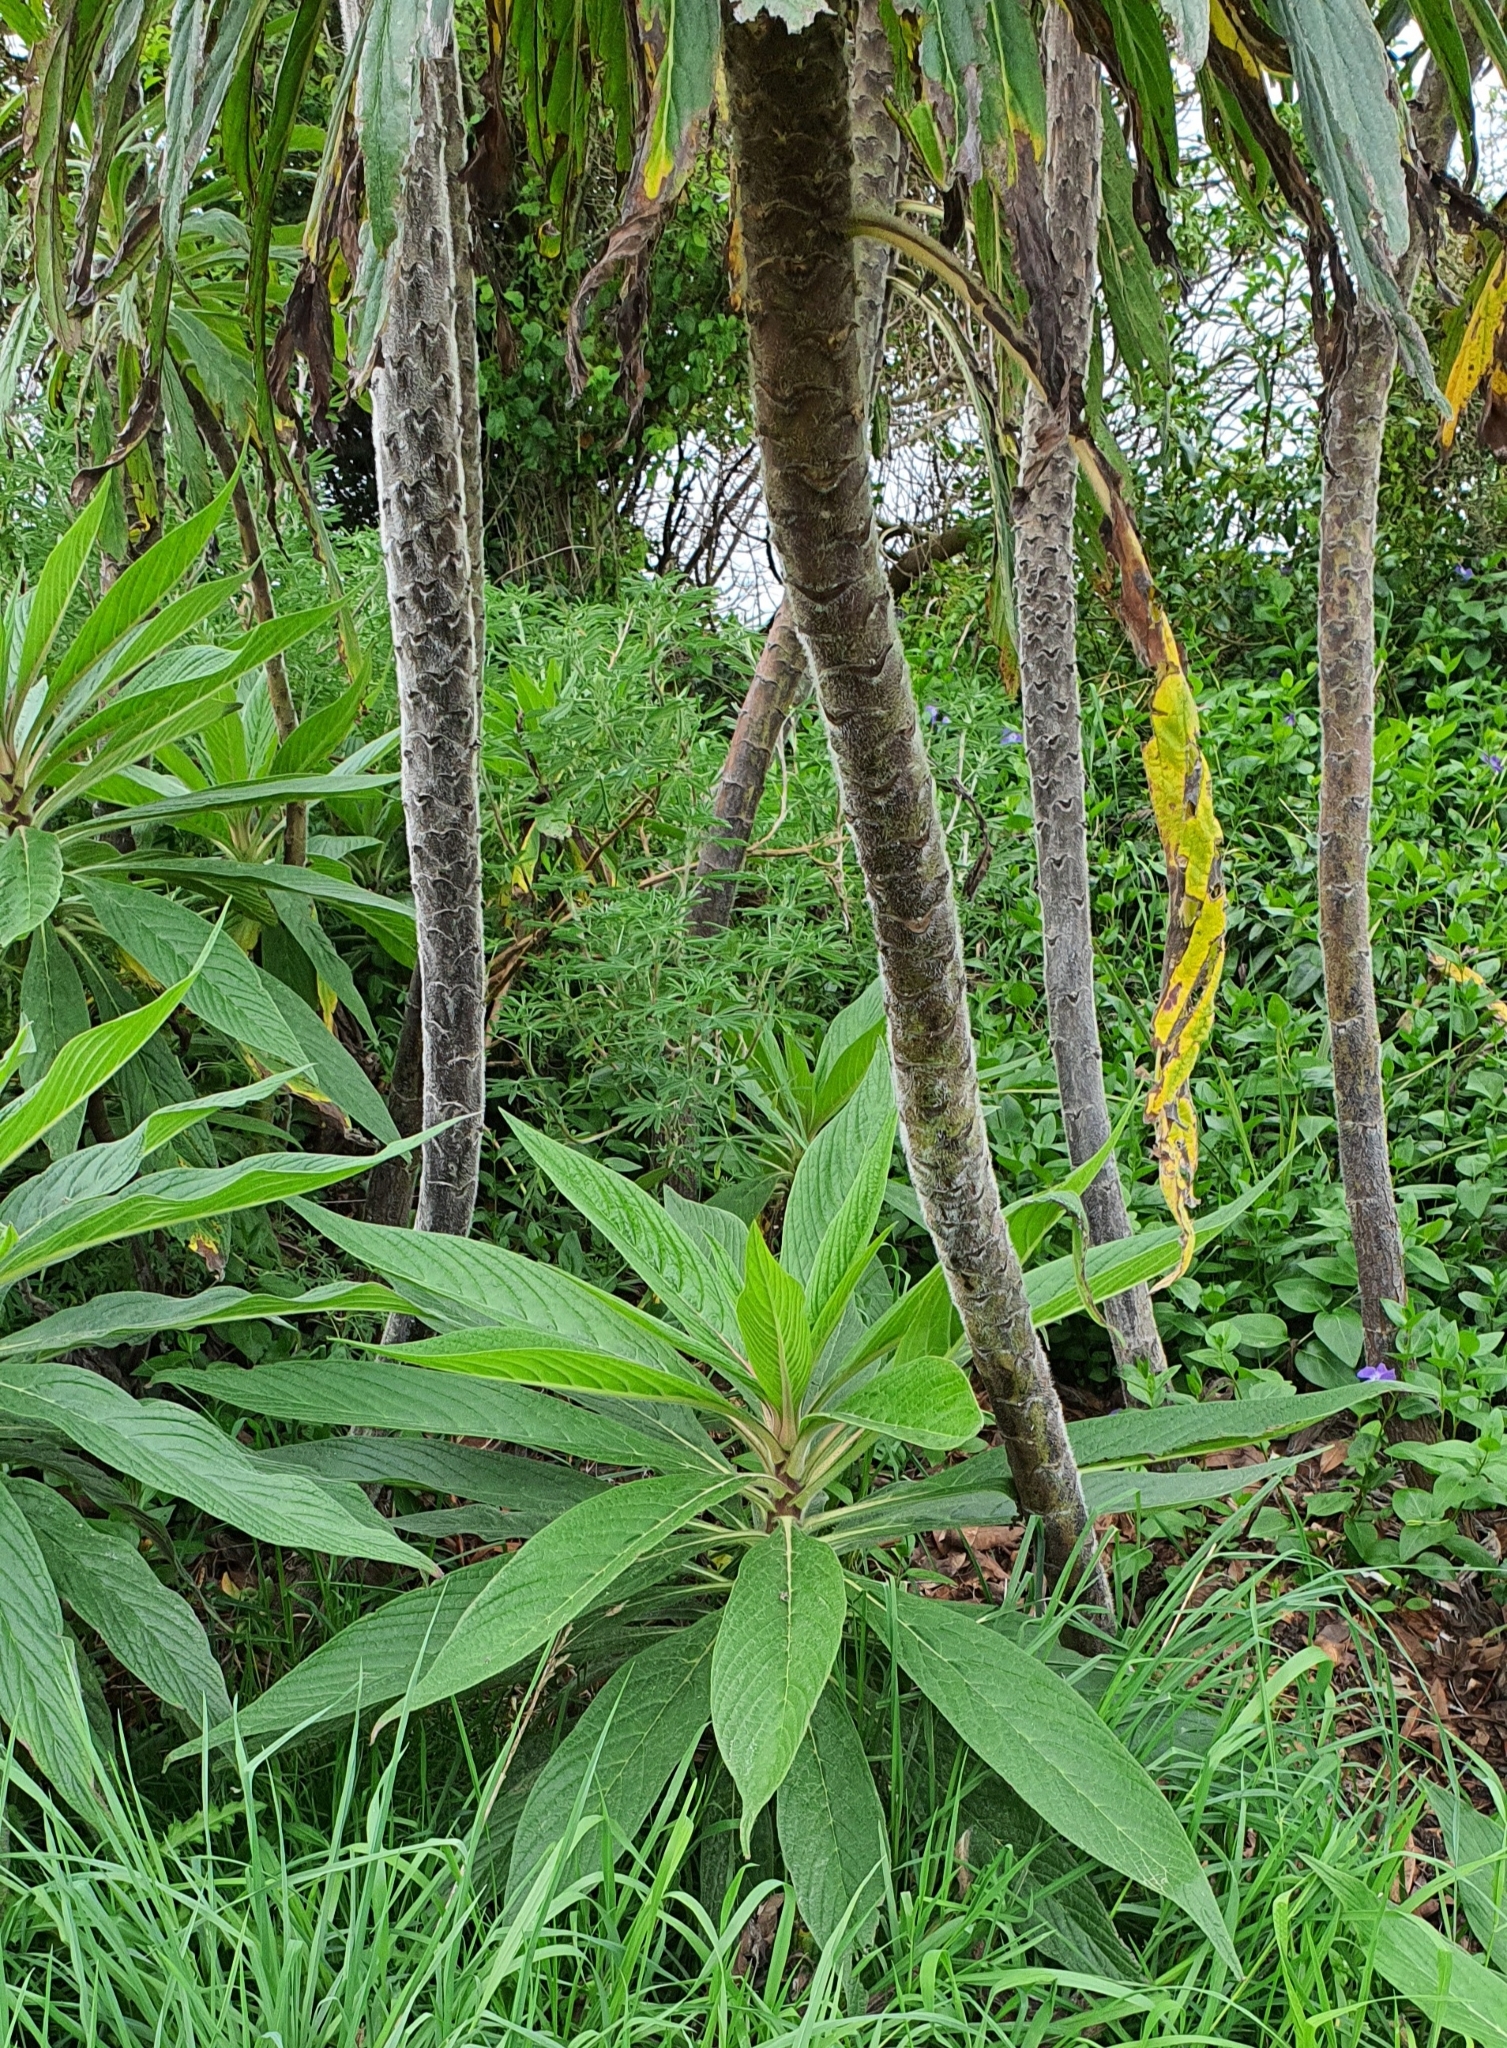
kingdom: Plantae
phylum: Tracheophyta
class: Magnoliopsida
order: Boraginales
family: Boraginaceae
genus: Echium
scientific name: Echium pininana
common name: Giant viper's-bugloss
